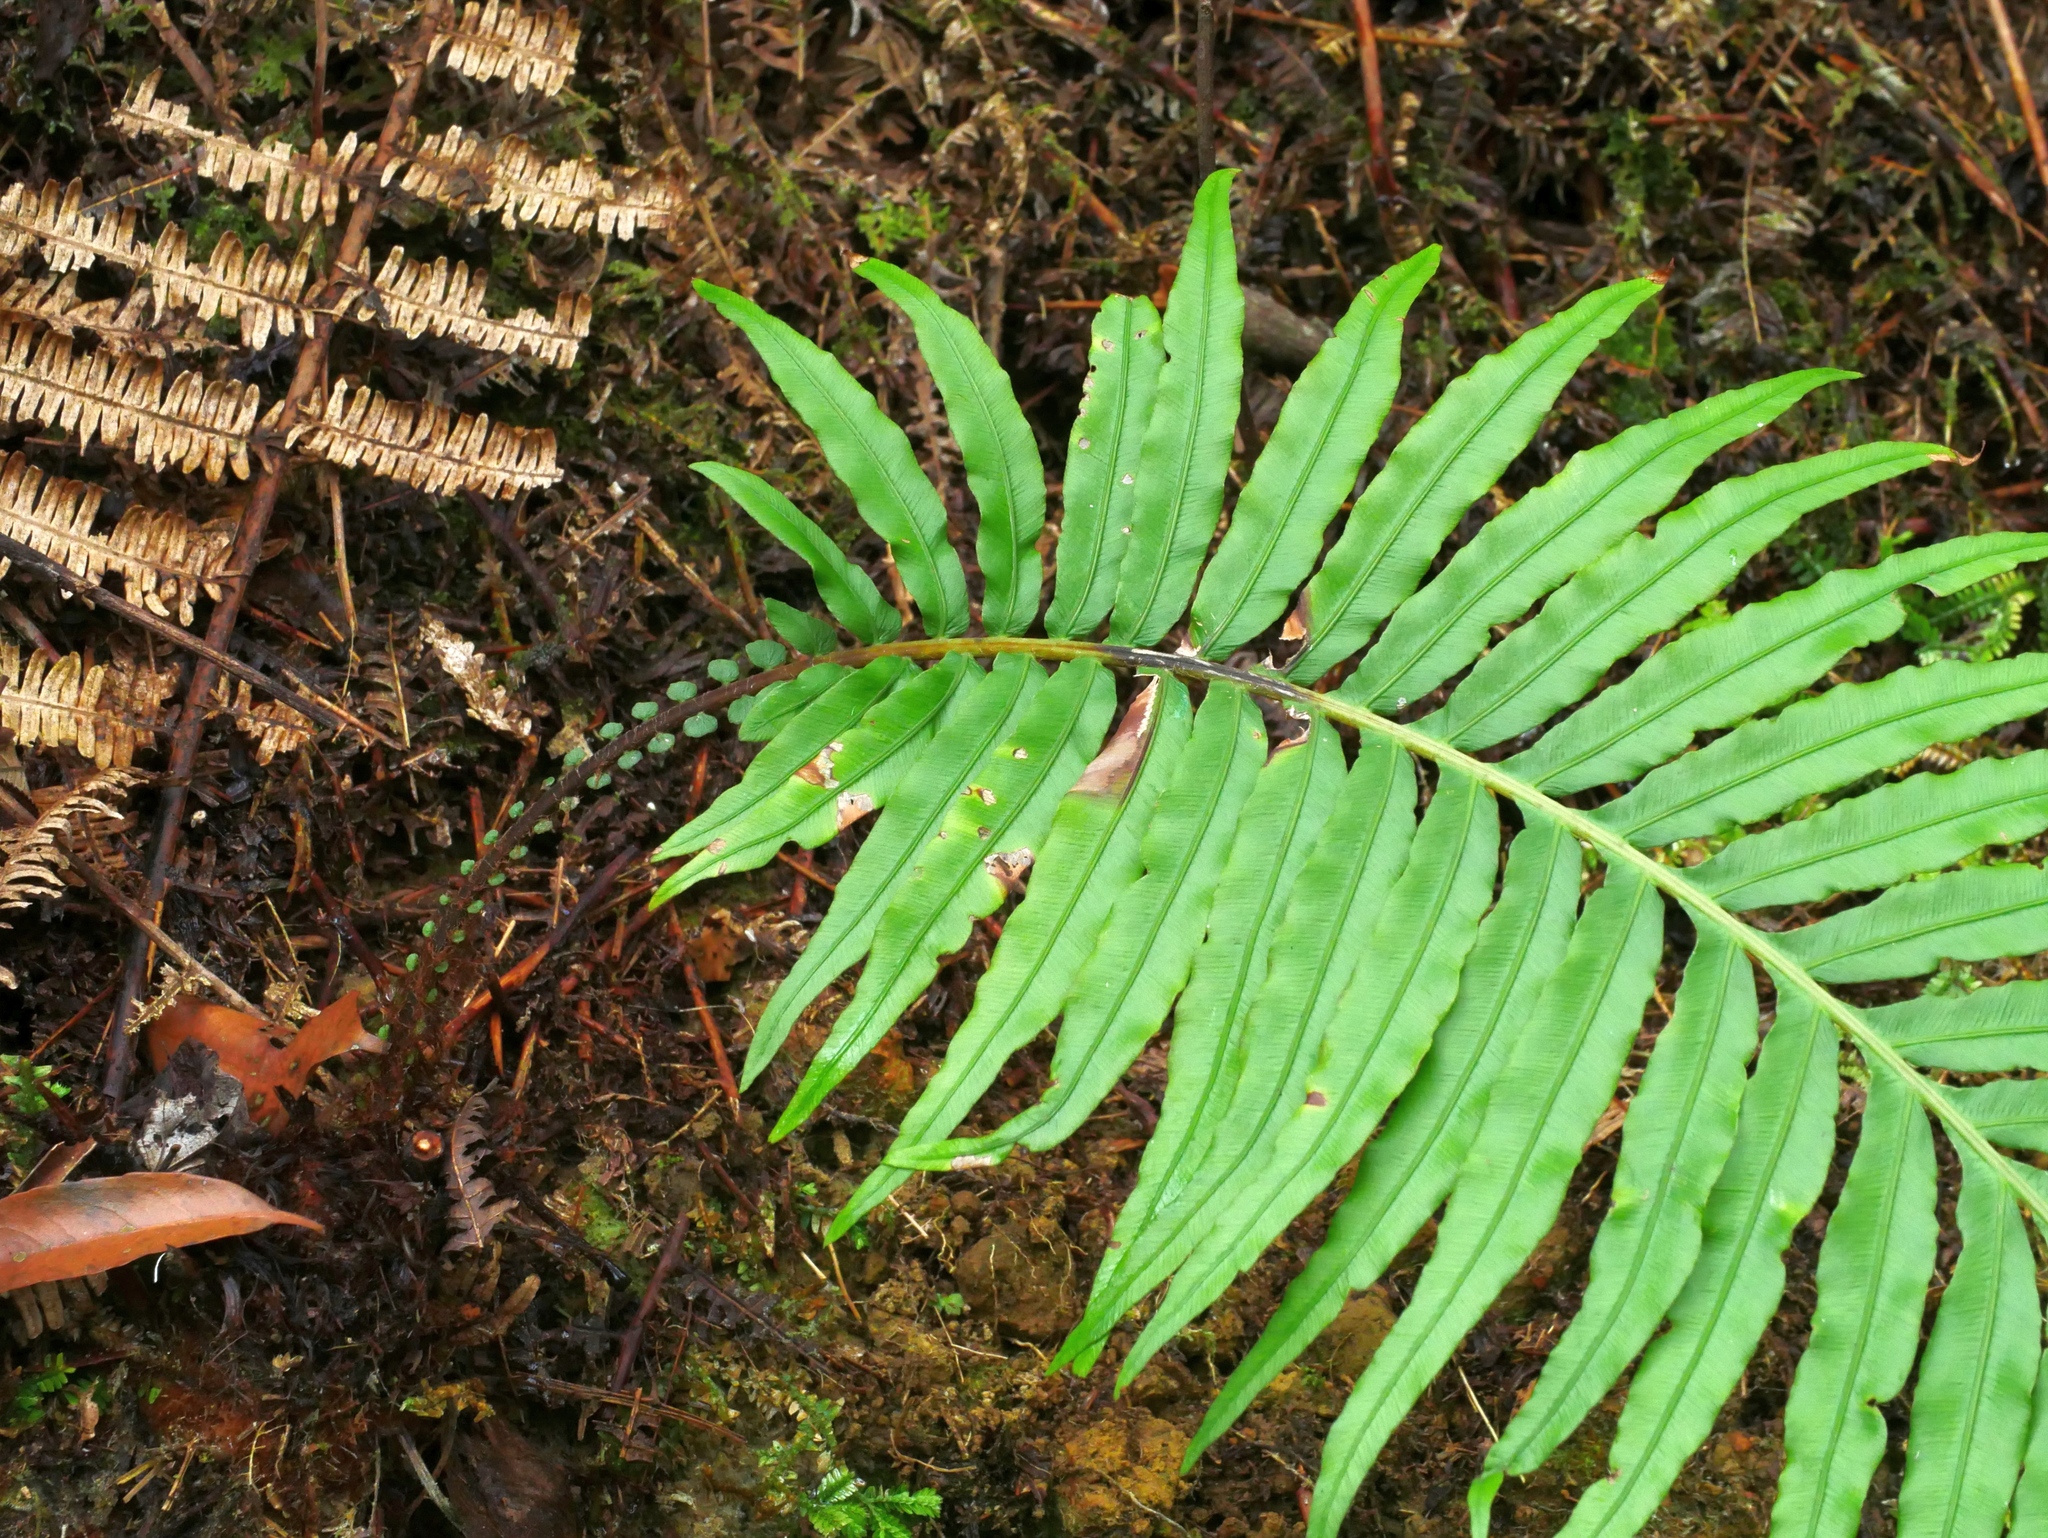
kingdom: Plantae
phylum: Tracheophyta
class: Polypodiopsida
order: Polypodiales
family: Blechnaceae
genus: Blechnopsis
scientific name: Blechnopsis orientalis
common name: Oriental blechnum
